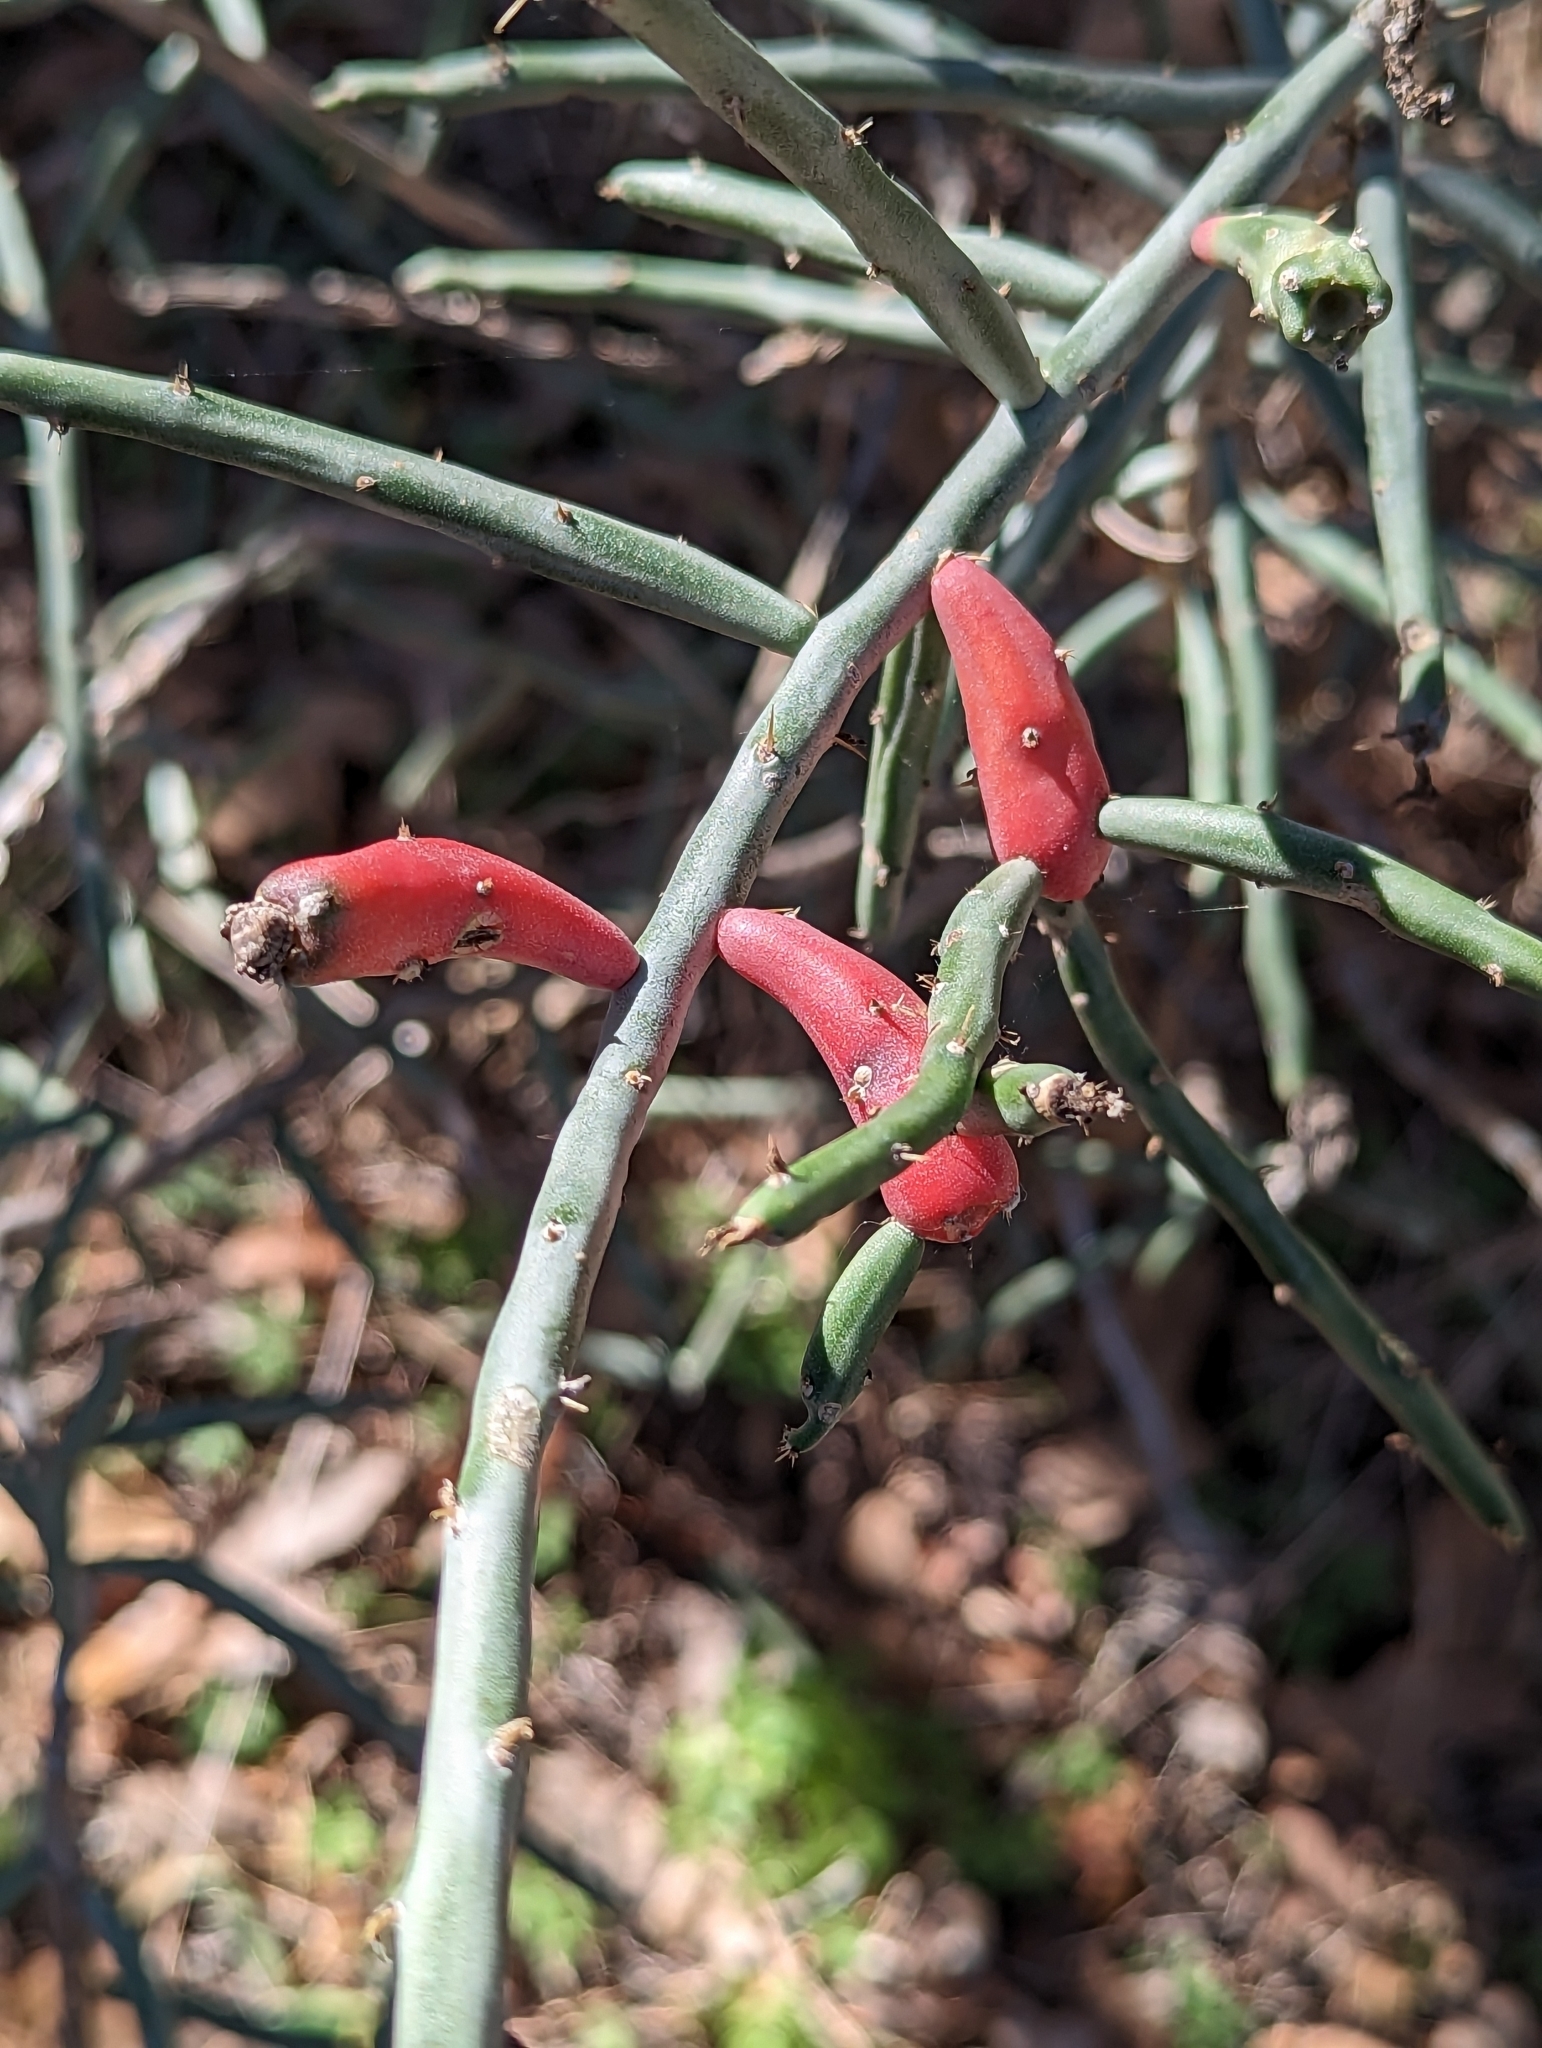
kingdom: Plantae
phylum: Tracheophyta
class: Magnoliopsida
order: Caryophyllales
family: Cactaceae
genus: Cylindropuntia
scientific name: Cylindropuntia leptocaulis
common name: Christmas cactus
